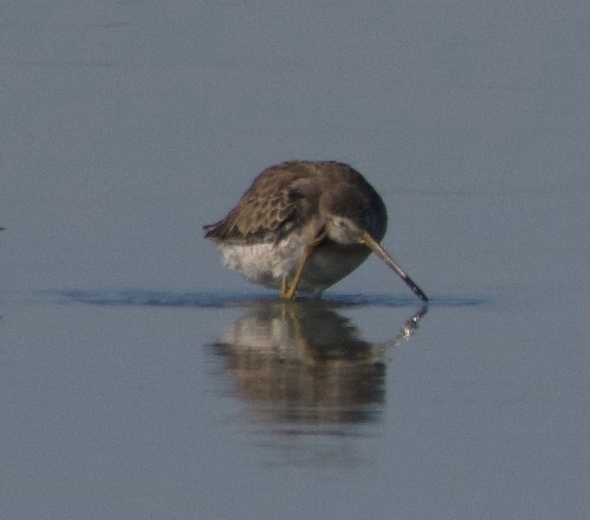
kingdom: Animalia
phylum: Chordata
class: Aves
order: Charadriiformes
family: Scolopacidae
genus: Limnodromus
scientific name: Limnodromus scolopaceus
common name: Long-billed dowitcher
